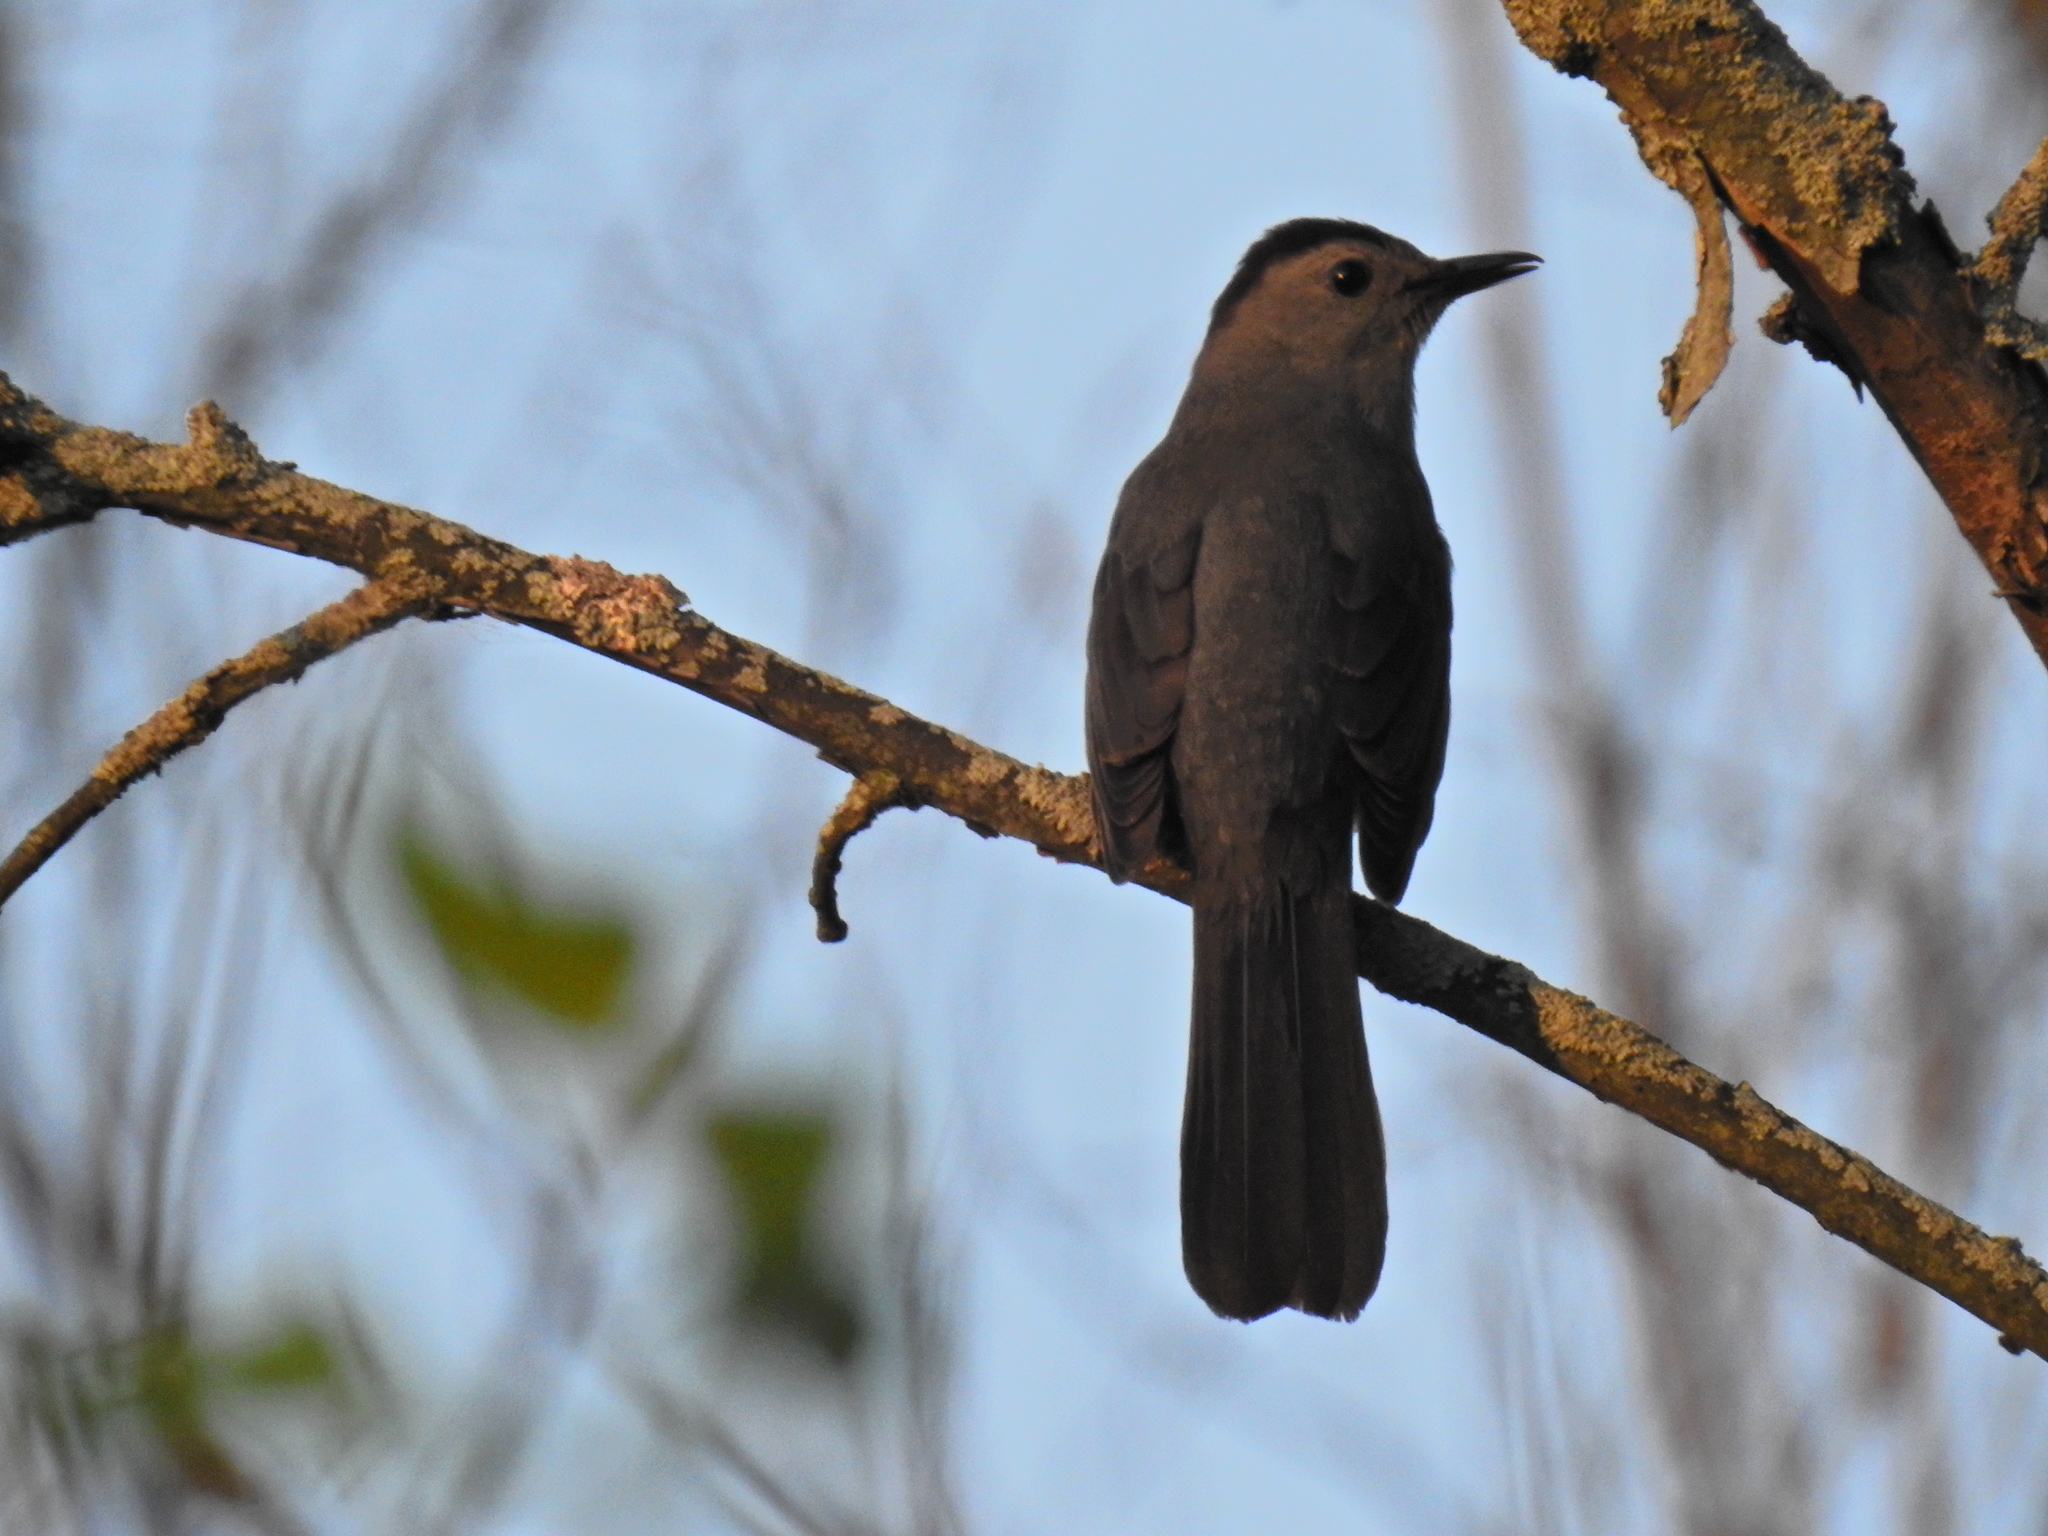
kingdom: Animalia
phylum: Chordata
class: Aves
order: Passeriformes
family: Mimidae
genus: Dumetella
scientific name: Dumetella carolinensis
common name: Gray catbird
